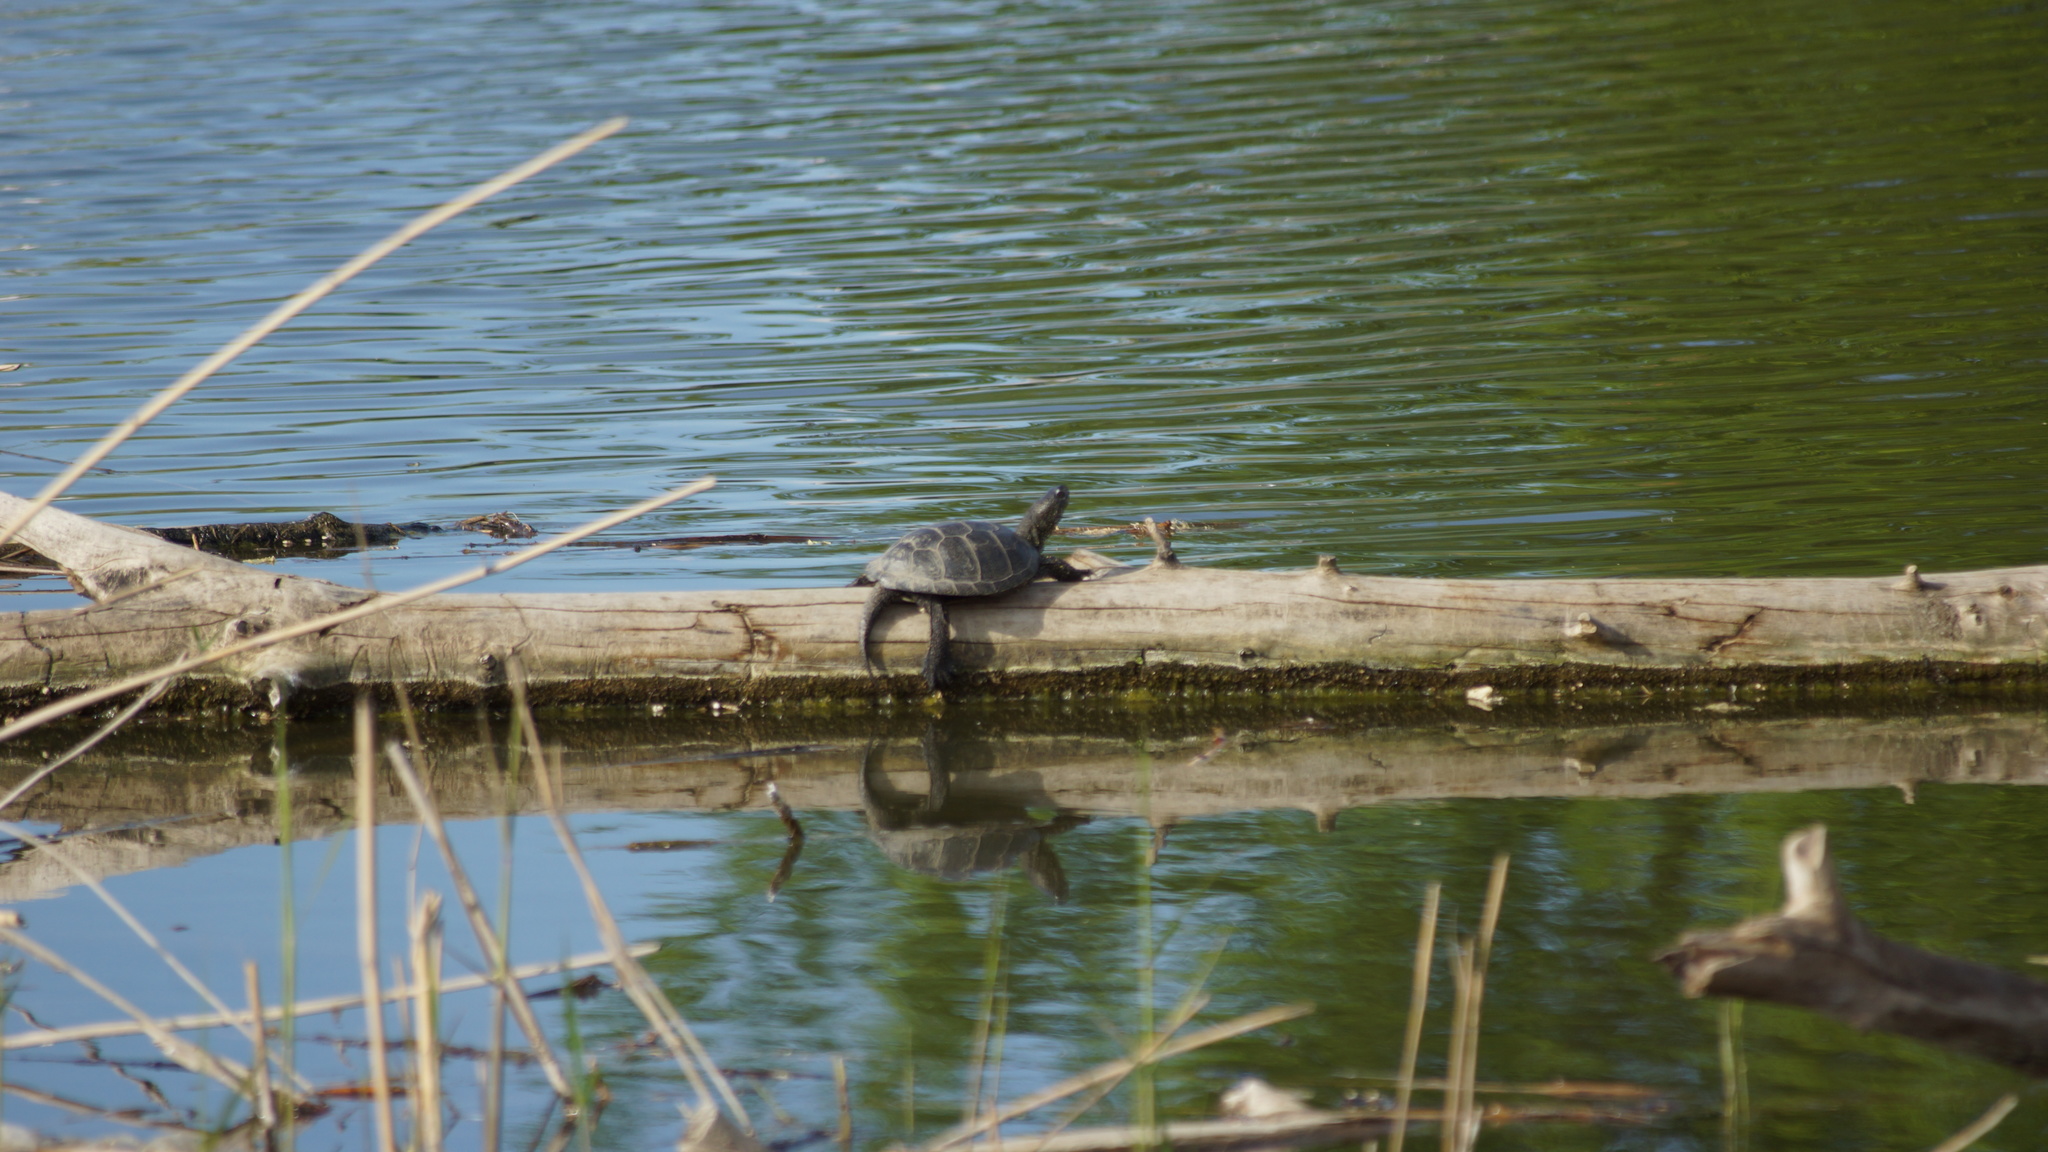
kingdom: Animalia
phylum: Chordata
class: Testudines
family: Emydidae
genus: Emys
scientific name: Emys orbicularis
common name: European pond turtle
